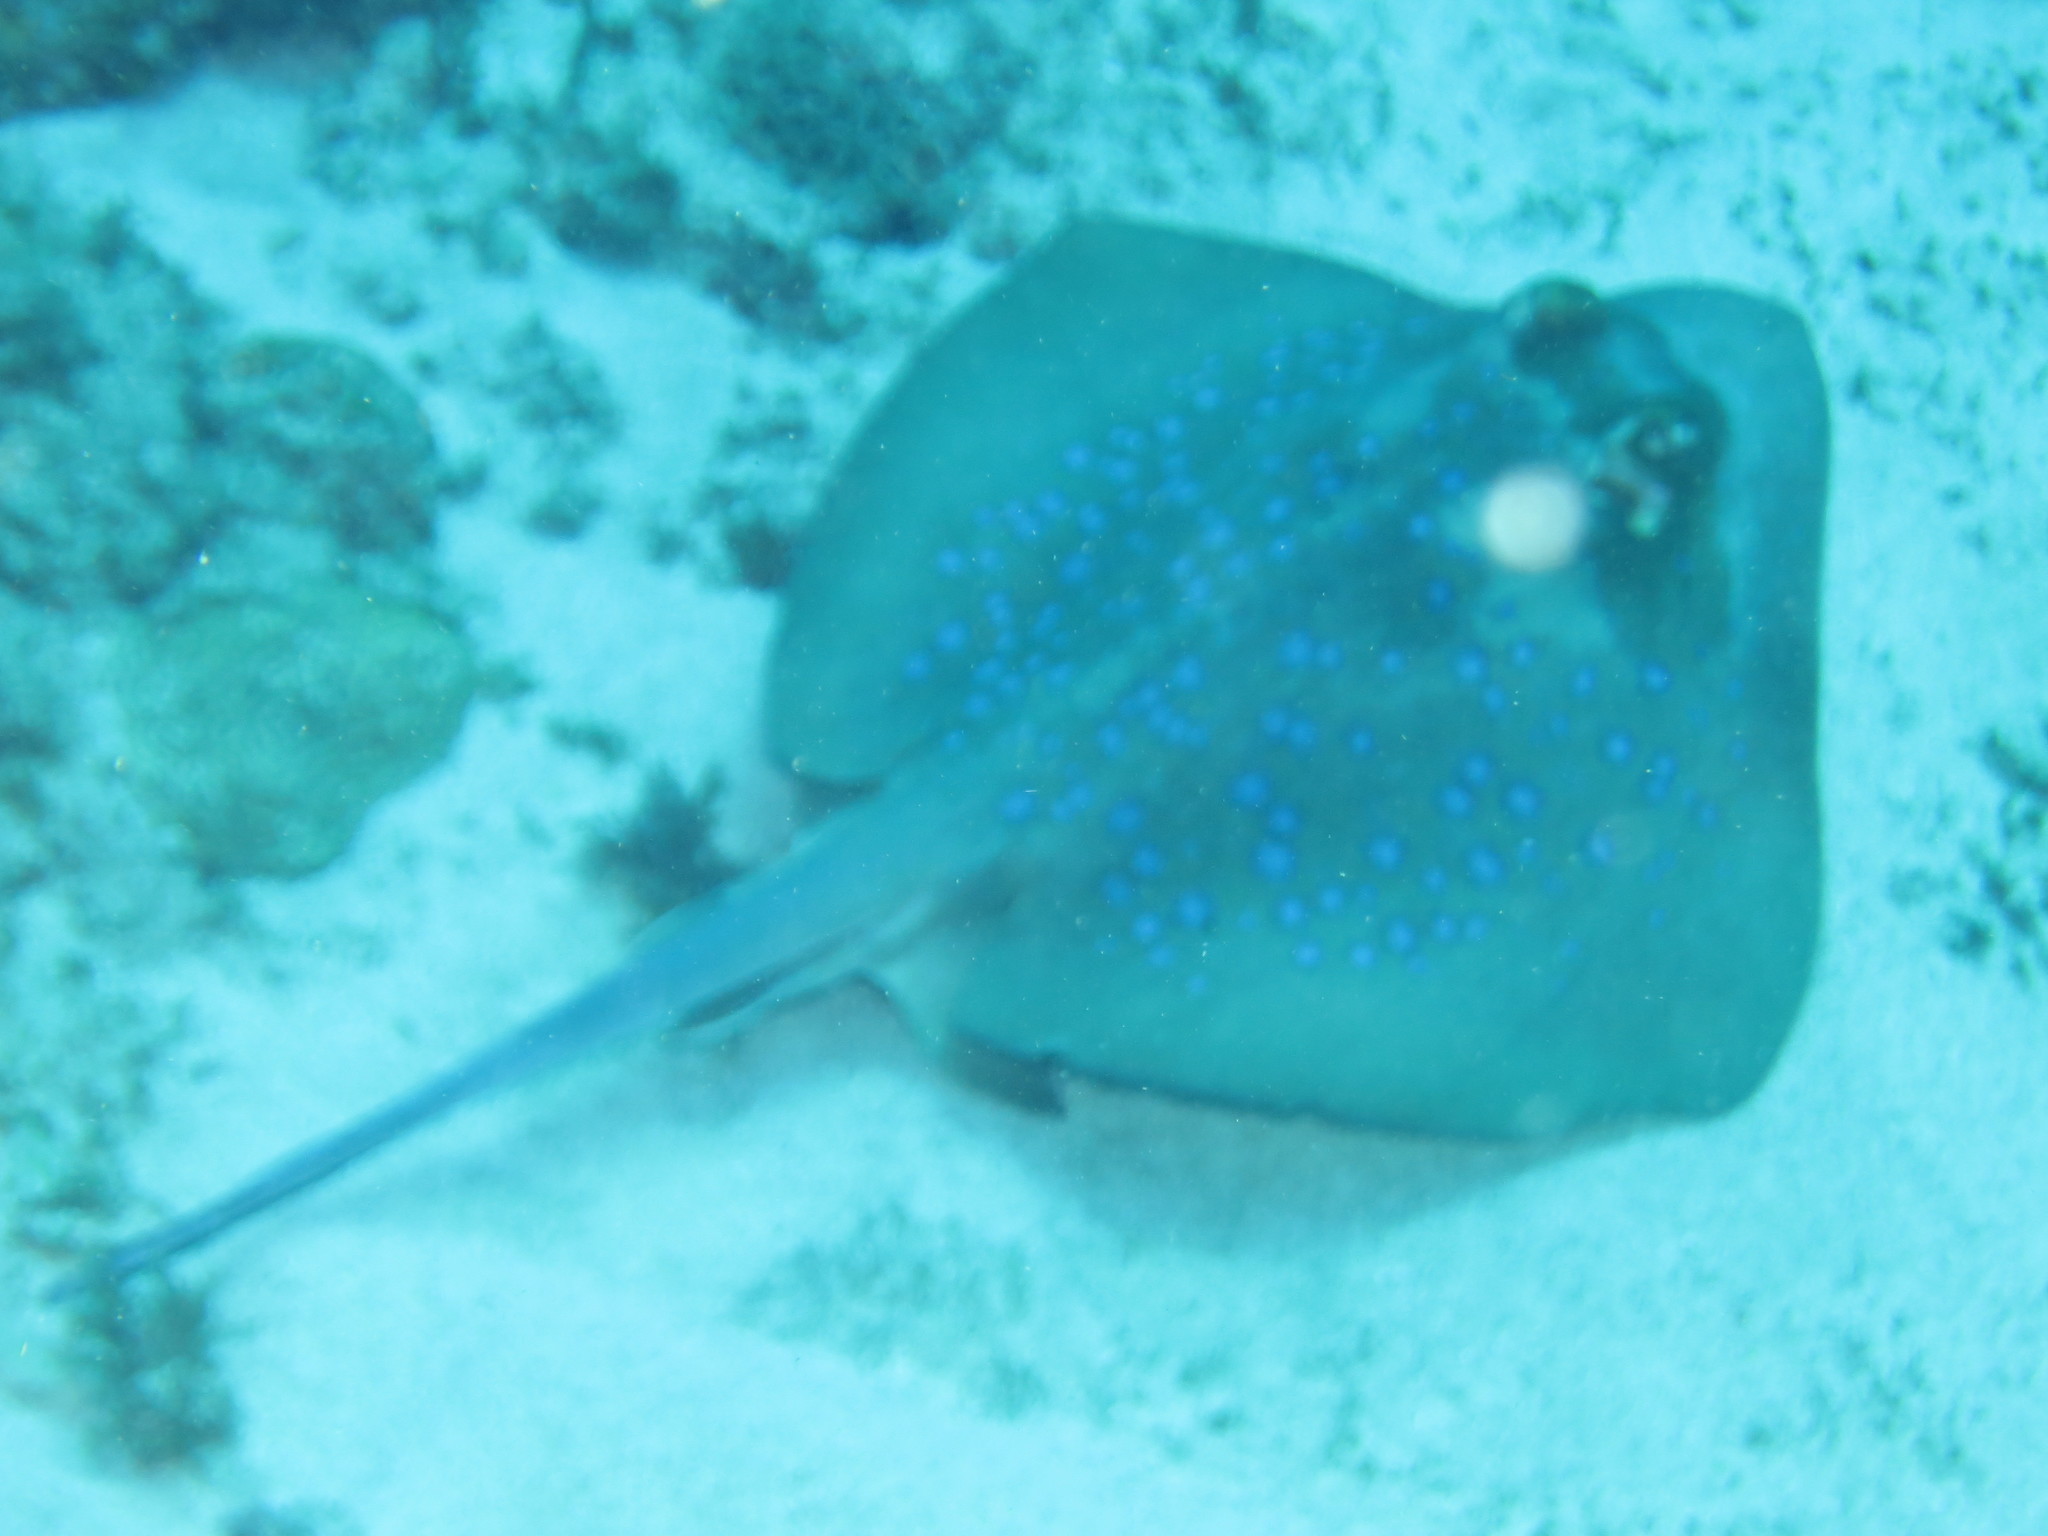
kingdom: Animalia
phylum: Chordata
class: Elasmobranchii
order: Myliobatiformes
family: Dasyatidae
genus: Neotrygon
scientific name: Neotrygon indica
